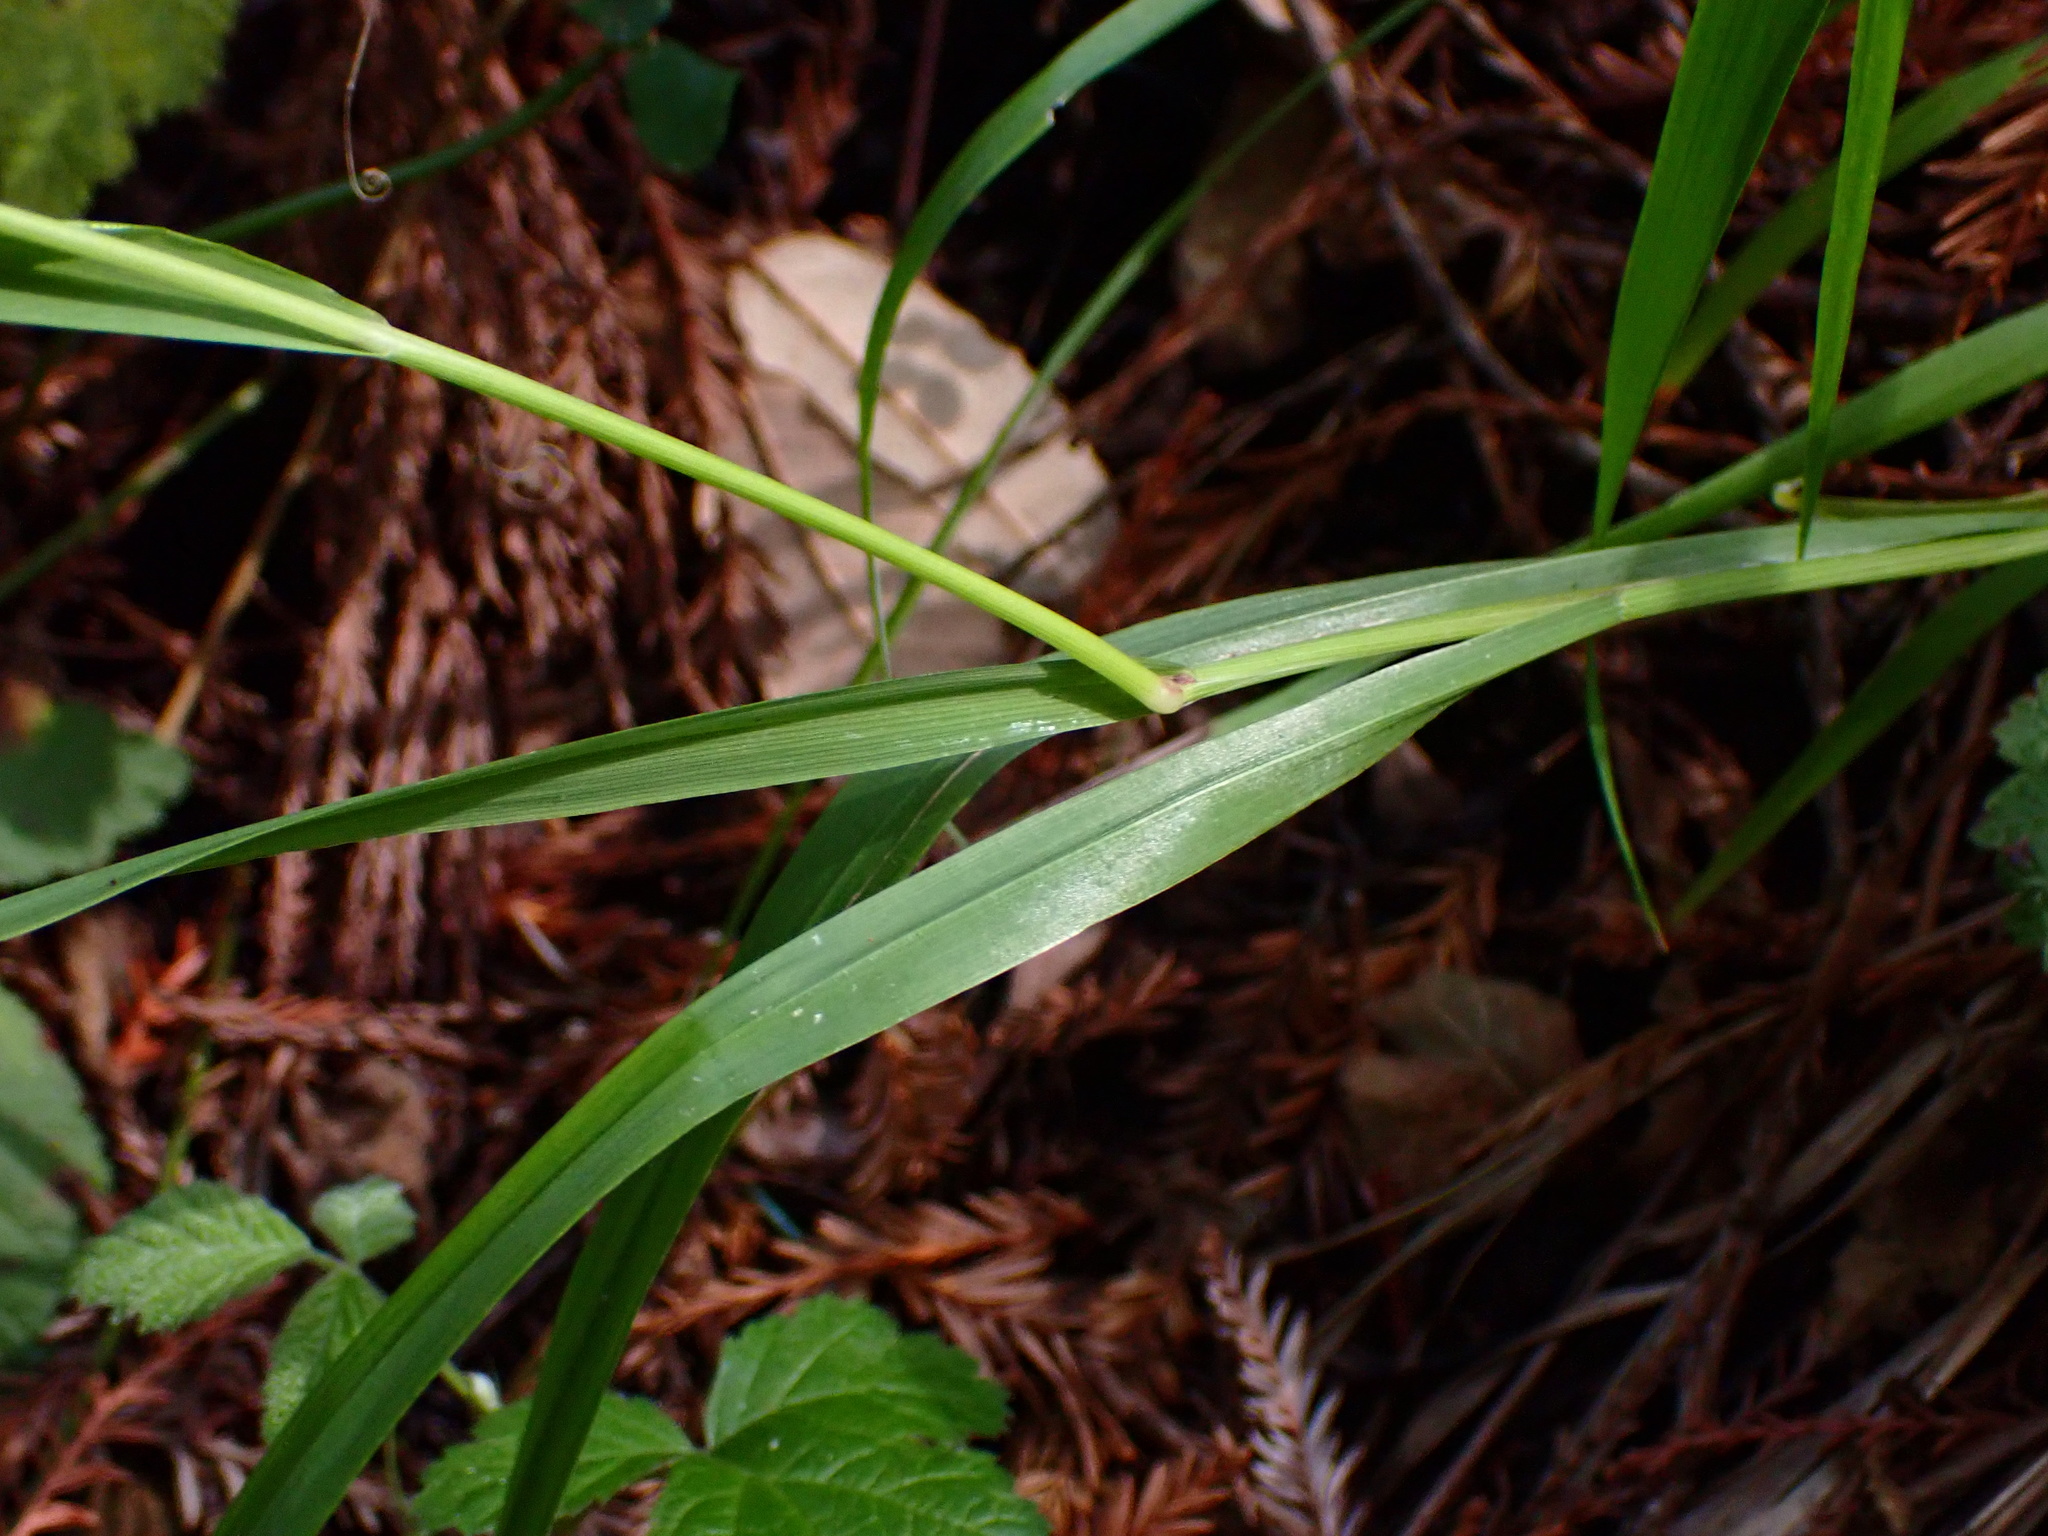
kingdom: Plantae
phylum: Tracheophyta
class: Liliopsida
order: Poales
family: Poaceae
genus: Anthoxanthum
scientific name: Anthoxanthum occidentale
